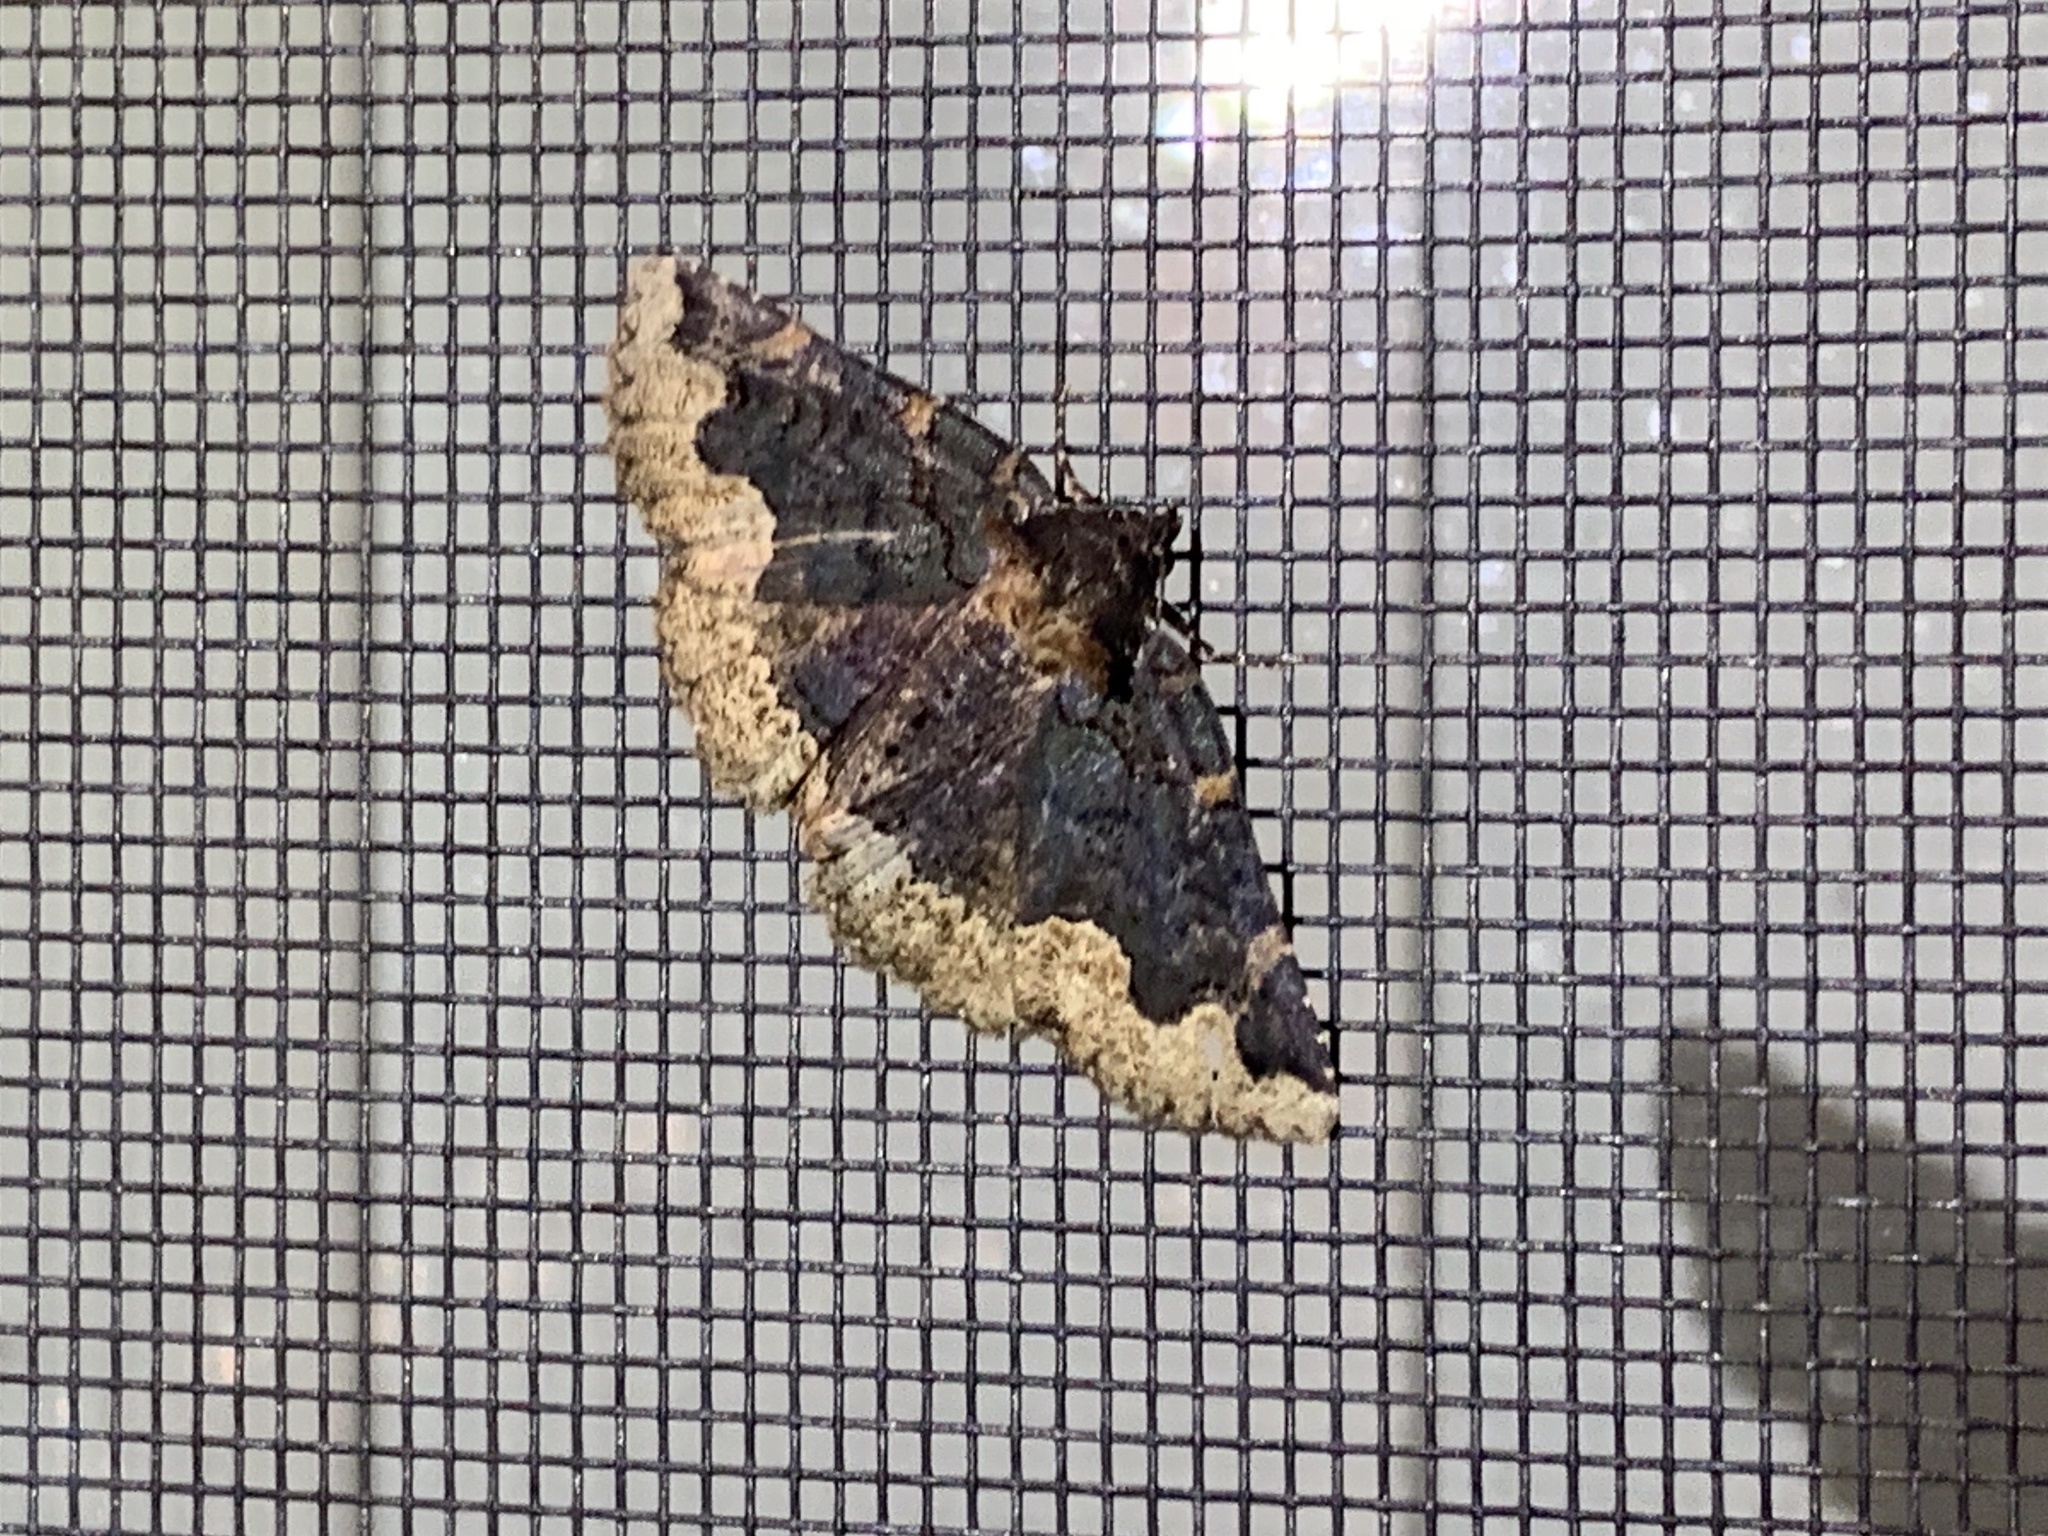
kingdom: Animalia
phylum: Arthropoda
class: Insecta
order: Lepidoptera
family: Erebidae
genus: Zale
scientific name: Zale horrida
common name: Horrid zale moth
